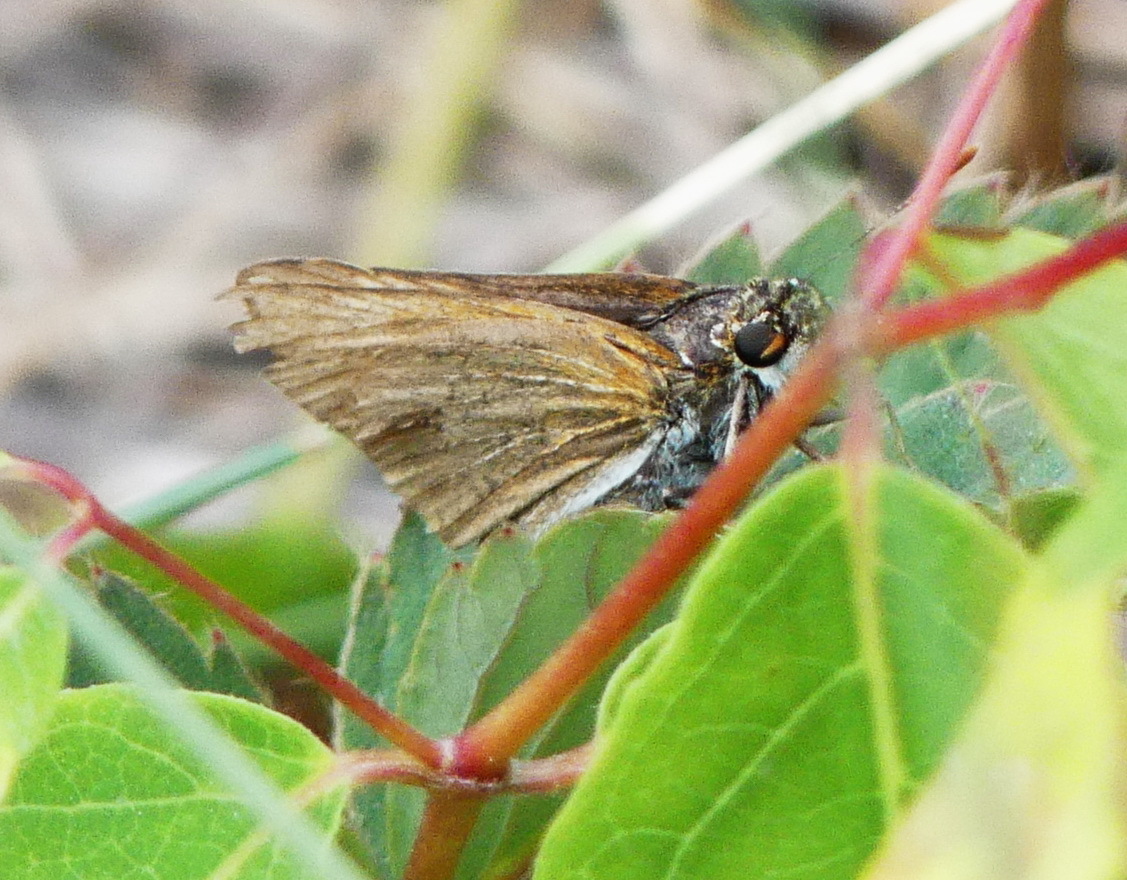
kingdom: Animalia
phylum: Arthropoda
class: Insecta
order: Lepidoptera
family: Hesperiidae
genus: Euphyes
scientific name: Euphyes bimacula
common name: Two-spotted skipper
